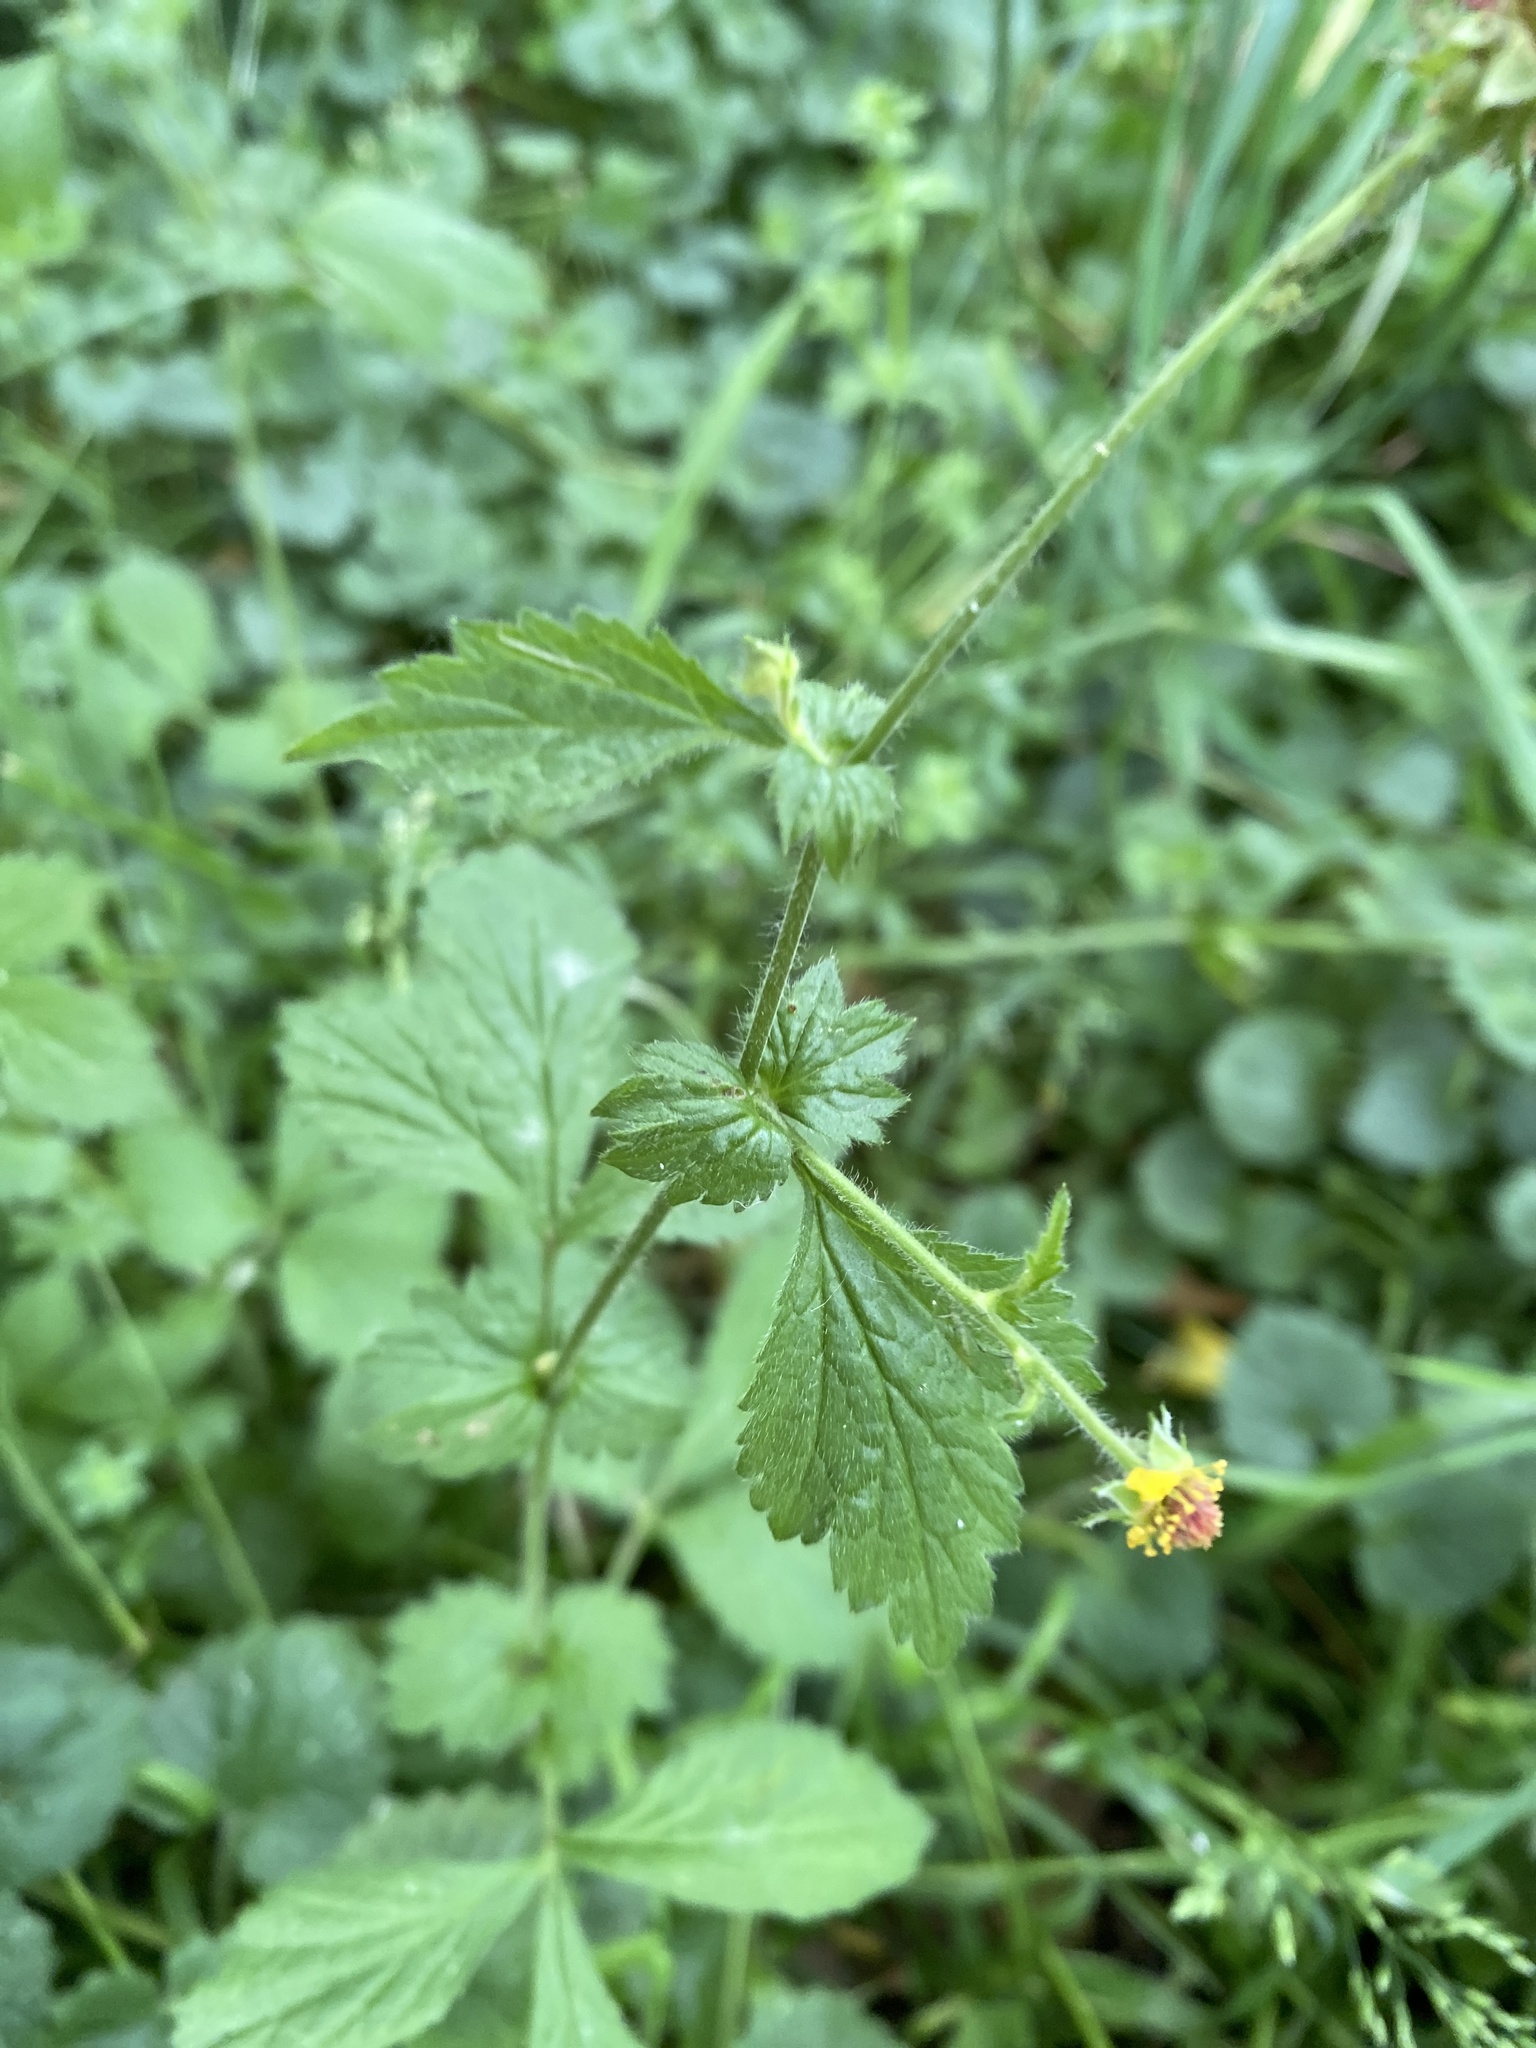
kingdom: Plantae
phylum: Tracheophyta
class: Magnoliopsida
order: Rosales
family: Rosaceae
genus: Geum
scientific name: Geum urbanum
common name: Wood avens
